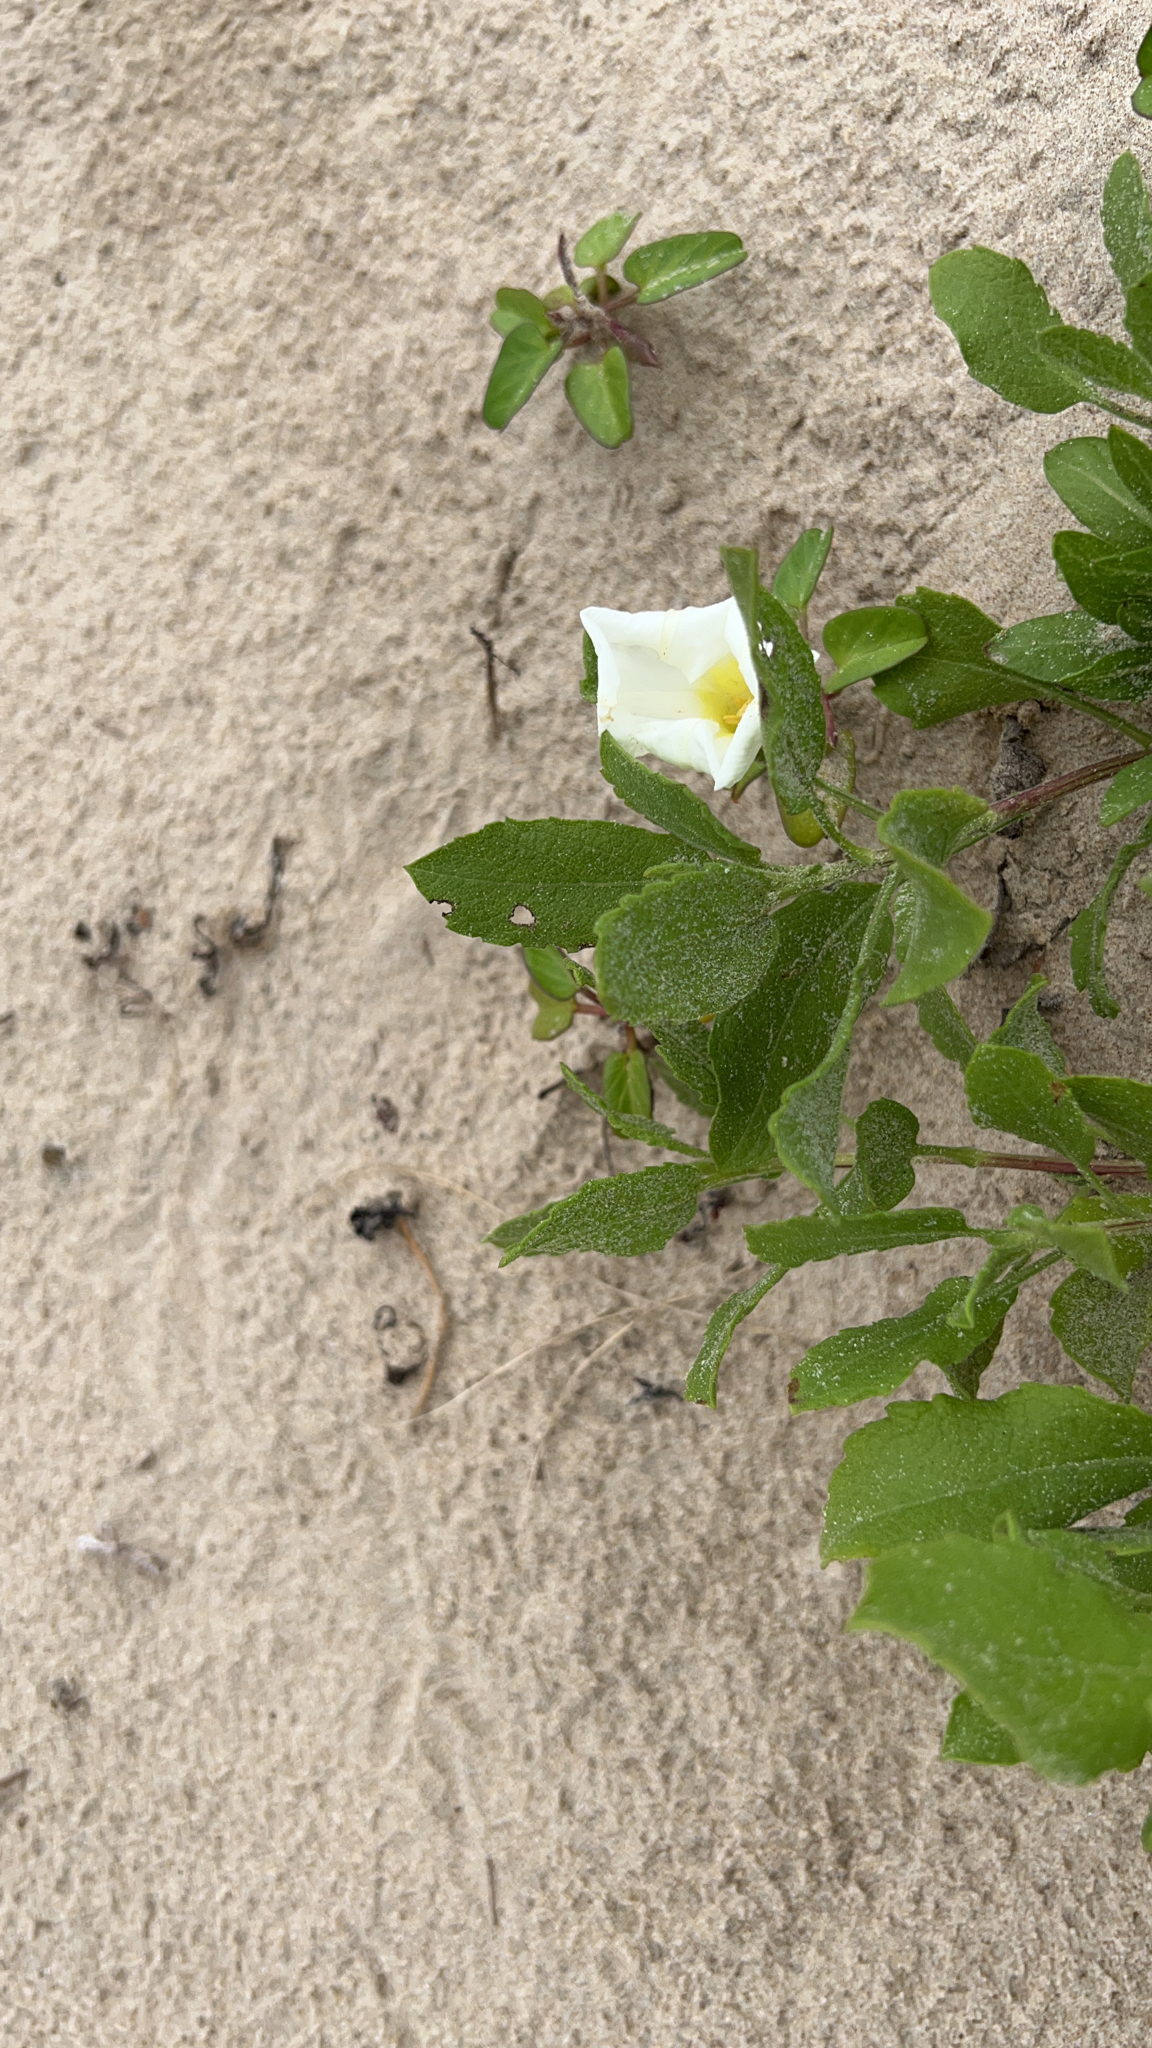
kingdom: Plantae
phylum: Tracheophyta
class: Magnoliopsida
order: Solanales
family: Convolvulaceae
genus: Ipomoea
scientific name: Ipomoea imperati
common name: Fiddle-leaf morning-glory
